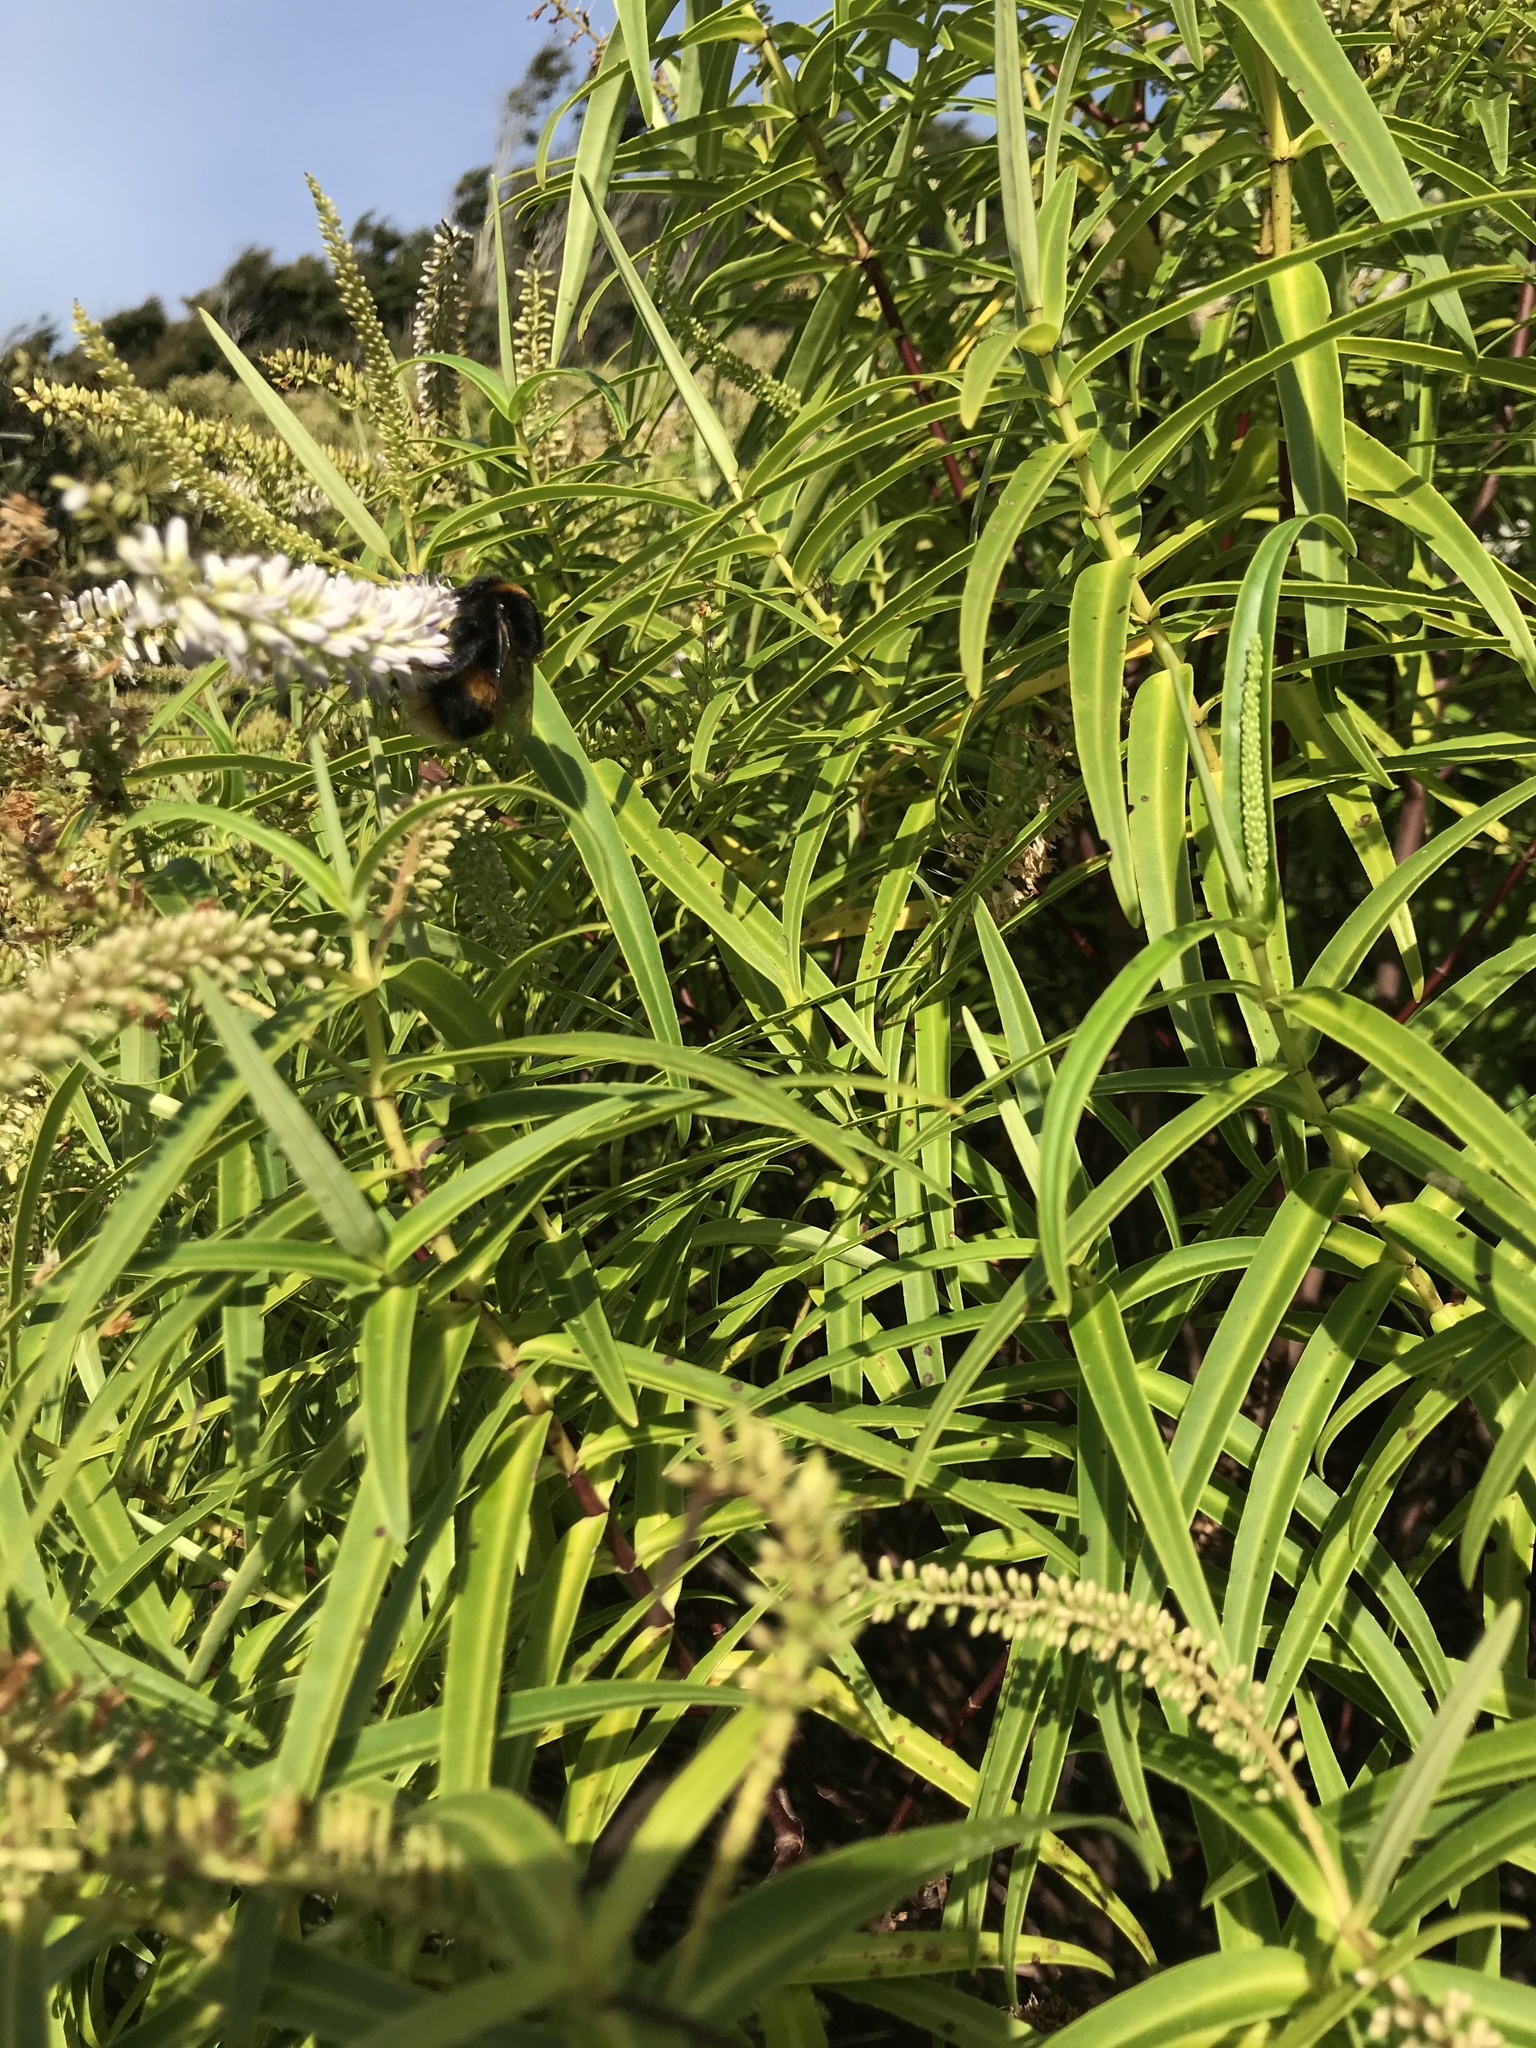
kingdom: Animalia
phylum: Arthropoda
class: Insecta
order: Hymenoptera
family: Apidae
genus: Bombus
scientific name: Bombus terrestris
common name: Buff-tailed bumblebee
